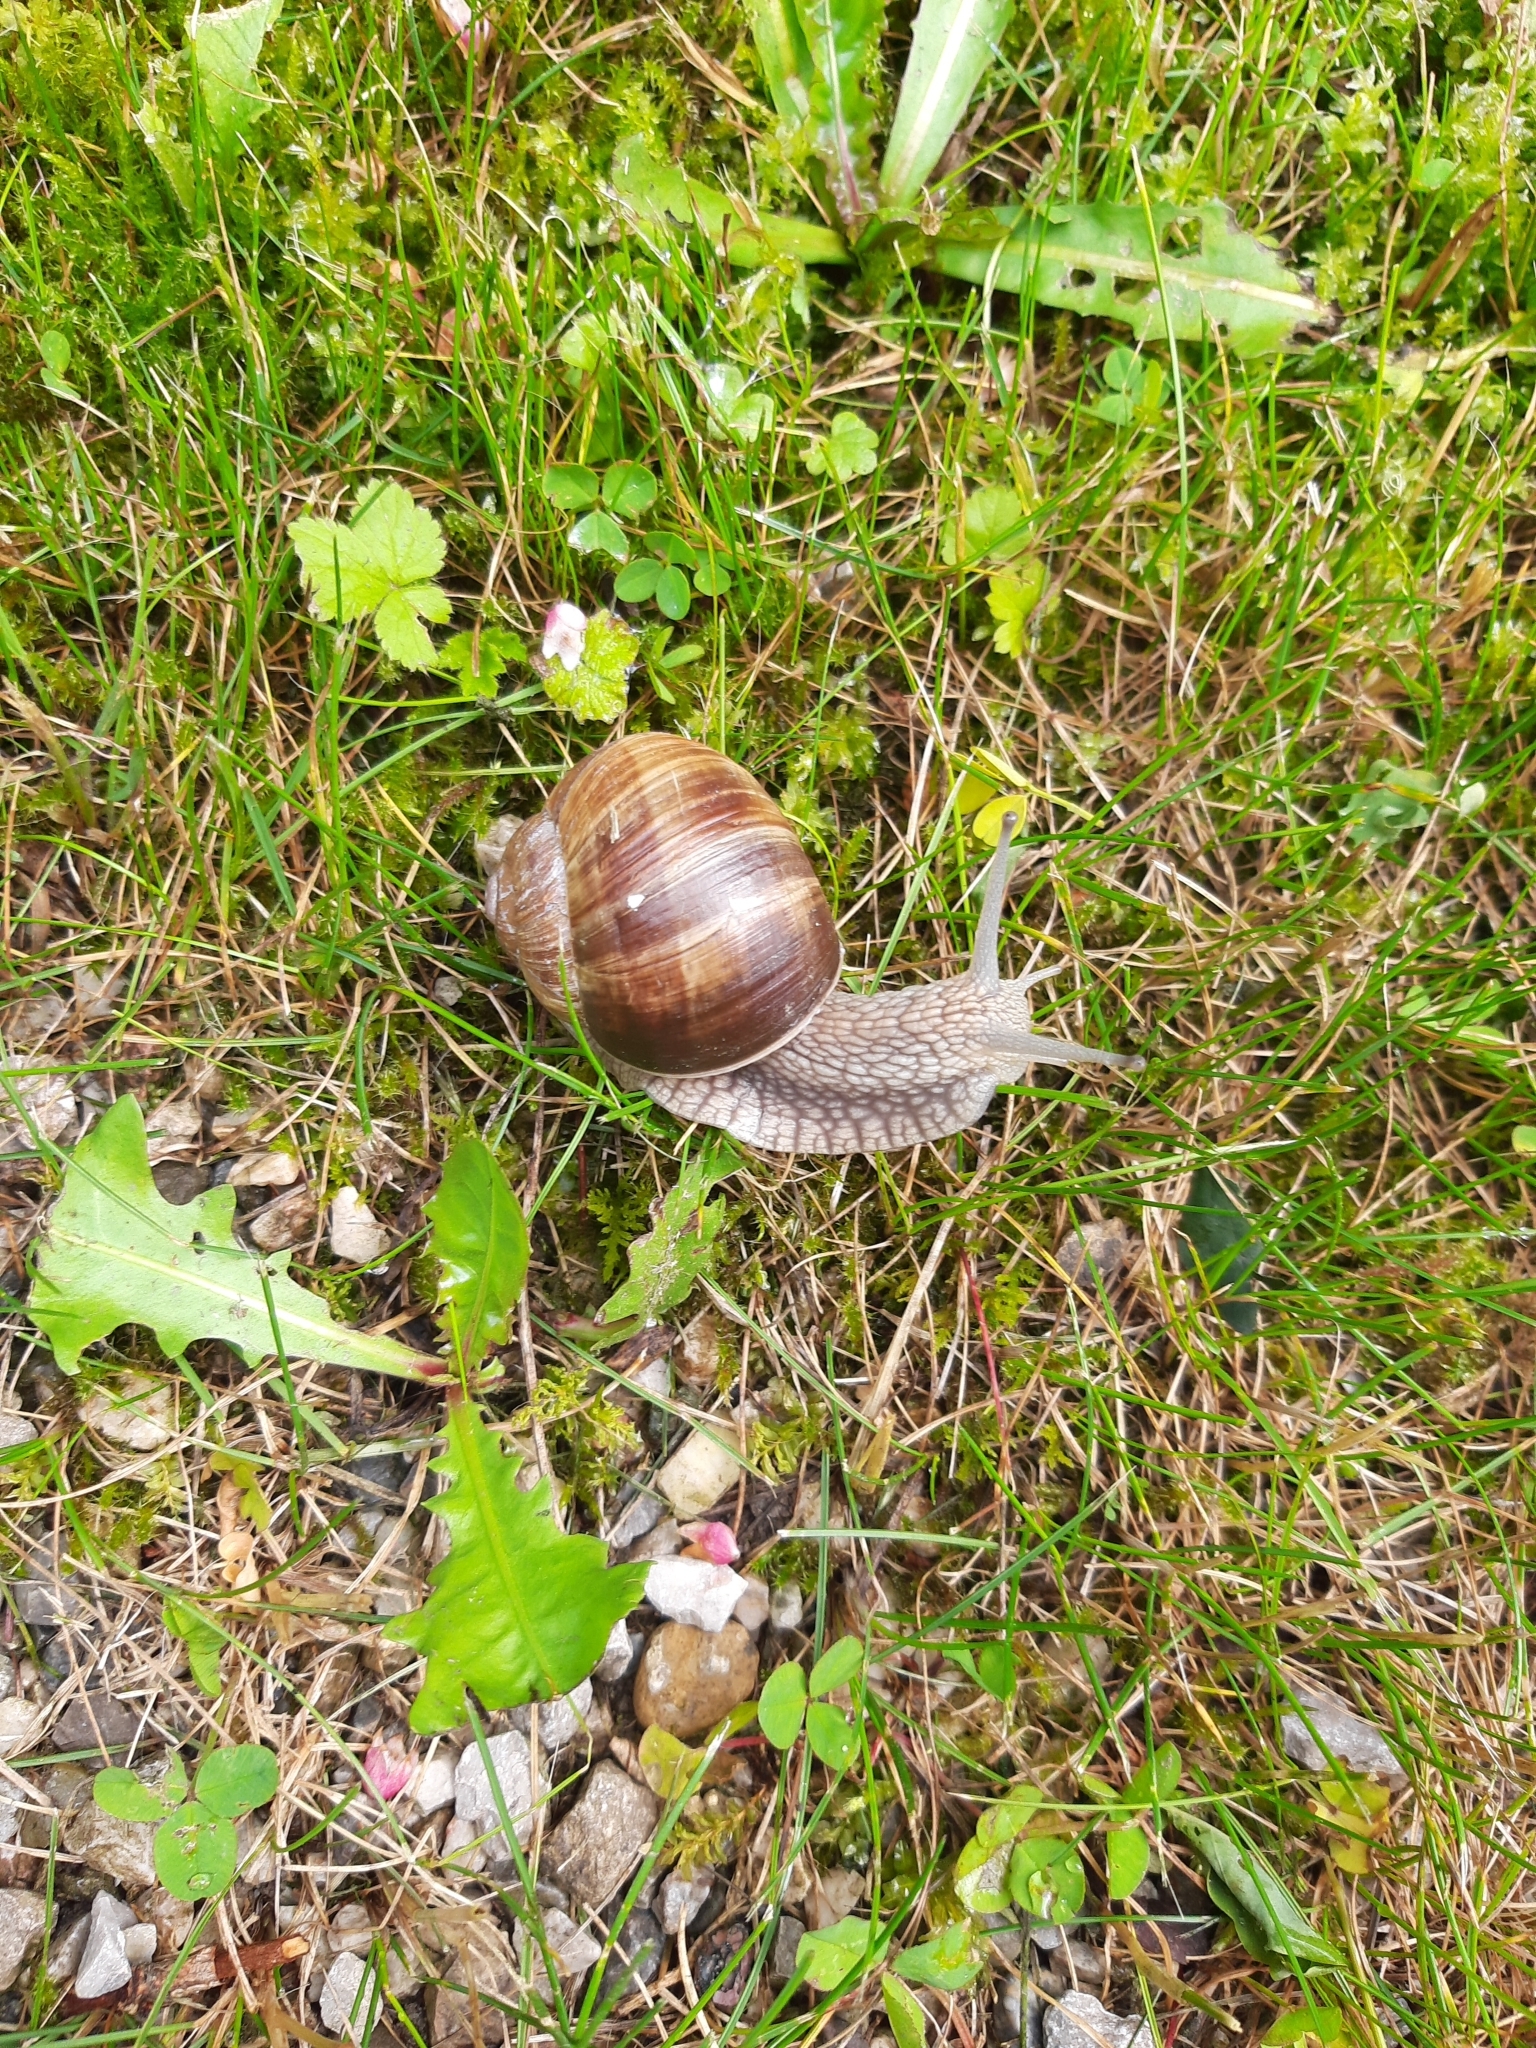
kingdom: Animalia
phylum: Mollusca
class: Gastropoda
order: Stylommatophora
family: Helicidae
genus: Helix
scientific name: Helix pomatia
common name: Roman snail
